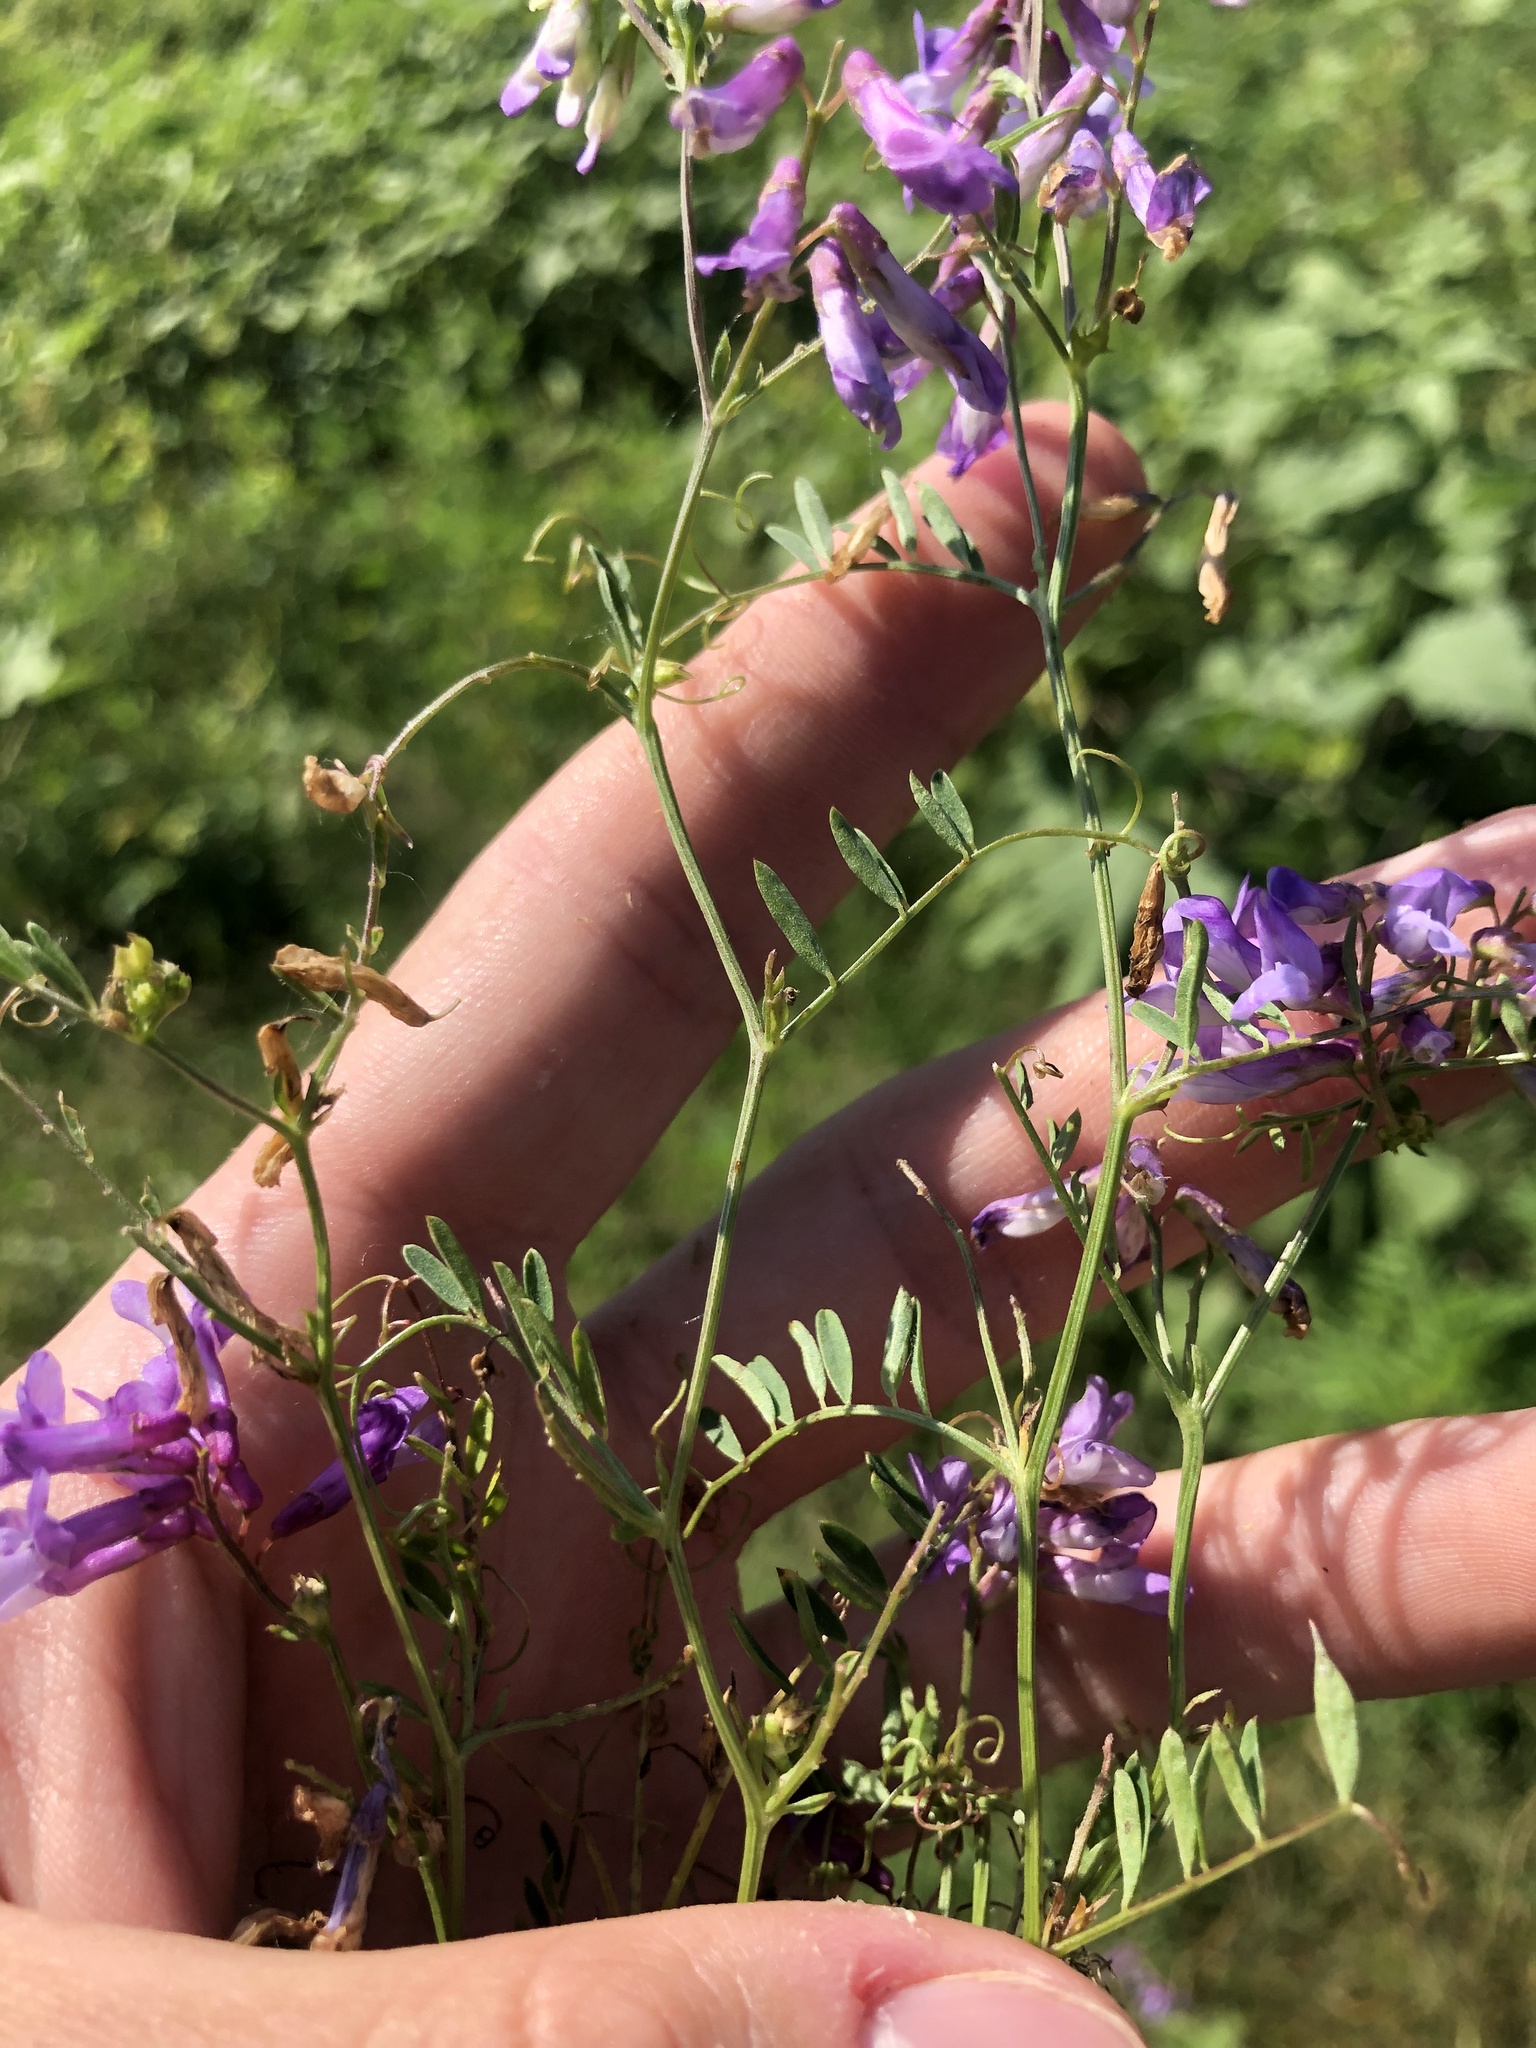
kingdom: Plantae
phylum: Tracheophyta
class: Magnoliopsida
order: Fabales
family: Fabaceae
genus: Vicia
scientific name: Vicia villosa
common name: Fodder vetch
